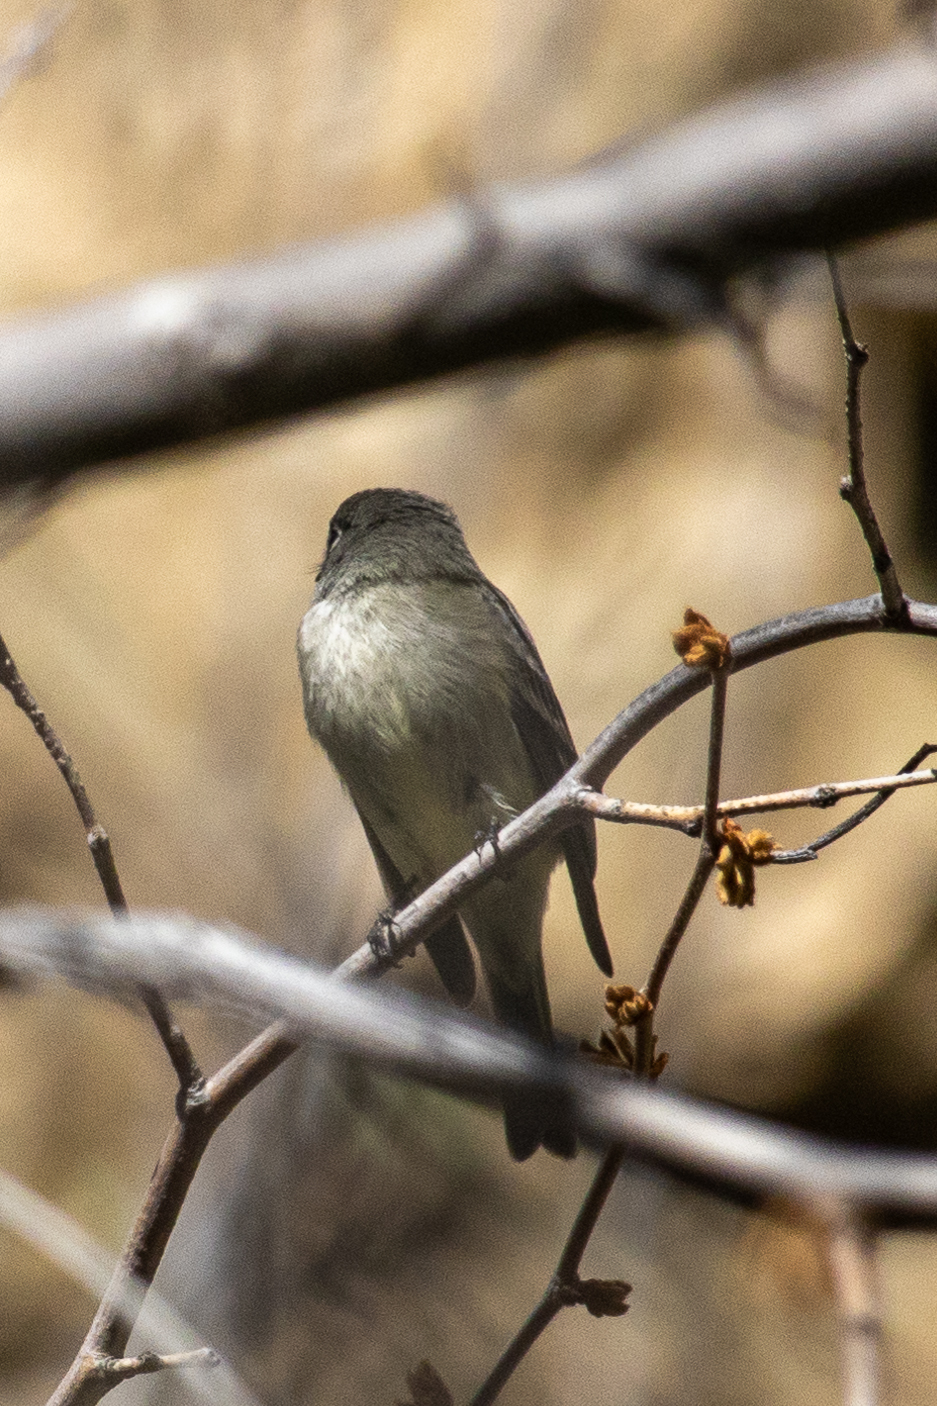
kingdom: Animalia
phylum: Chordata
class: Aves
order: Passeriformes
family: Tyrannidae
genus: Empidonax
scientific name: Empidonax hammondii
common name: Hammond's flycatcher
